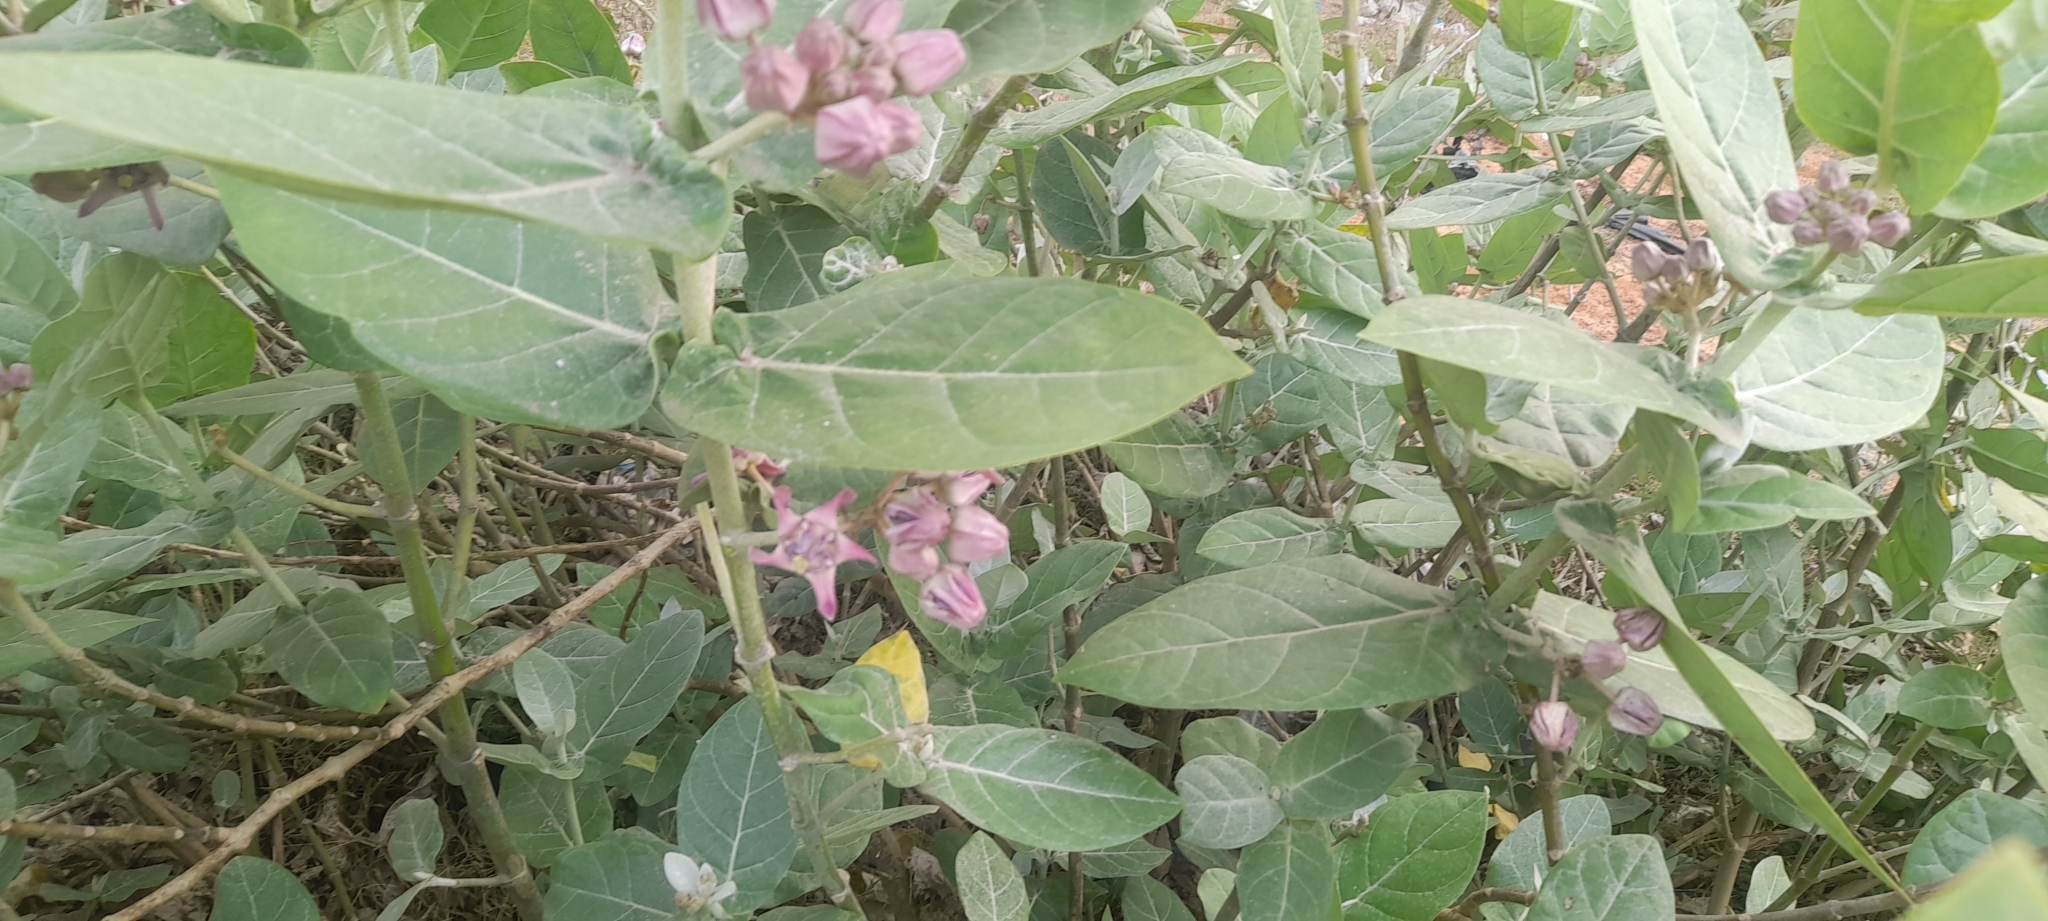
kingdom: Plantae
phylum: Tracheophyta
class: Magnoliopsida
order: Gentianales
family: Apocynaceae
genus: Calotropis
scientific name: Calotropis gigantea
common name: Crown flower
